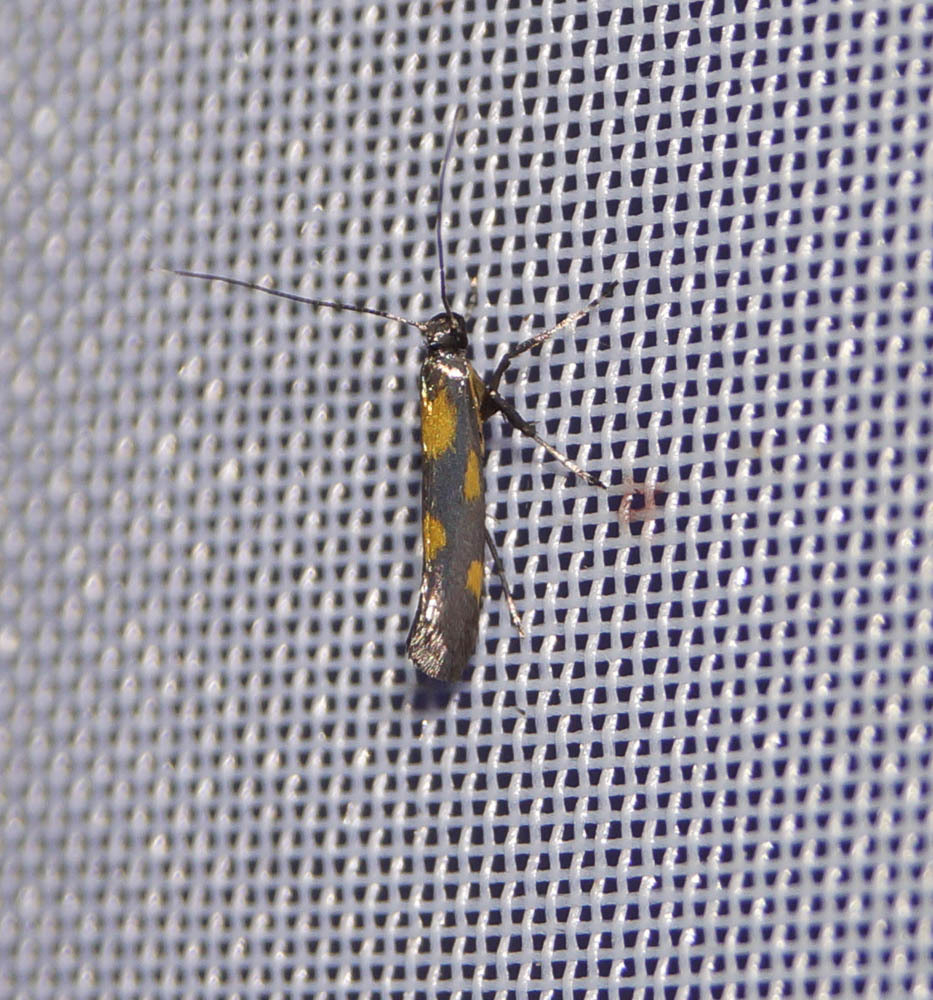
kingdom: Animalia
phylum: Arthropoda
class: Insecta
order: Lepidoptera
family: Gracillariidae
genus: Euspilapteryx
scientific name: Euspilapteryx auroguttella
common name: Gold-dot slender
